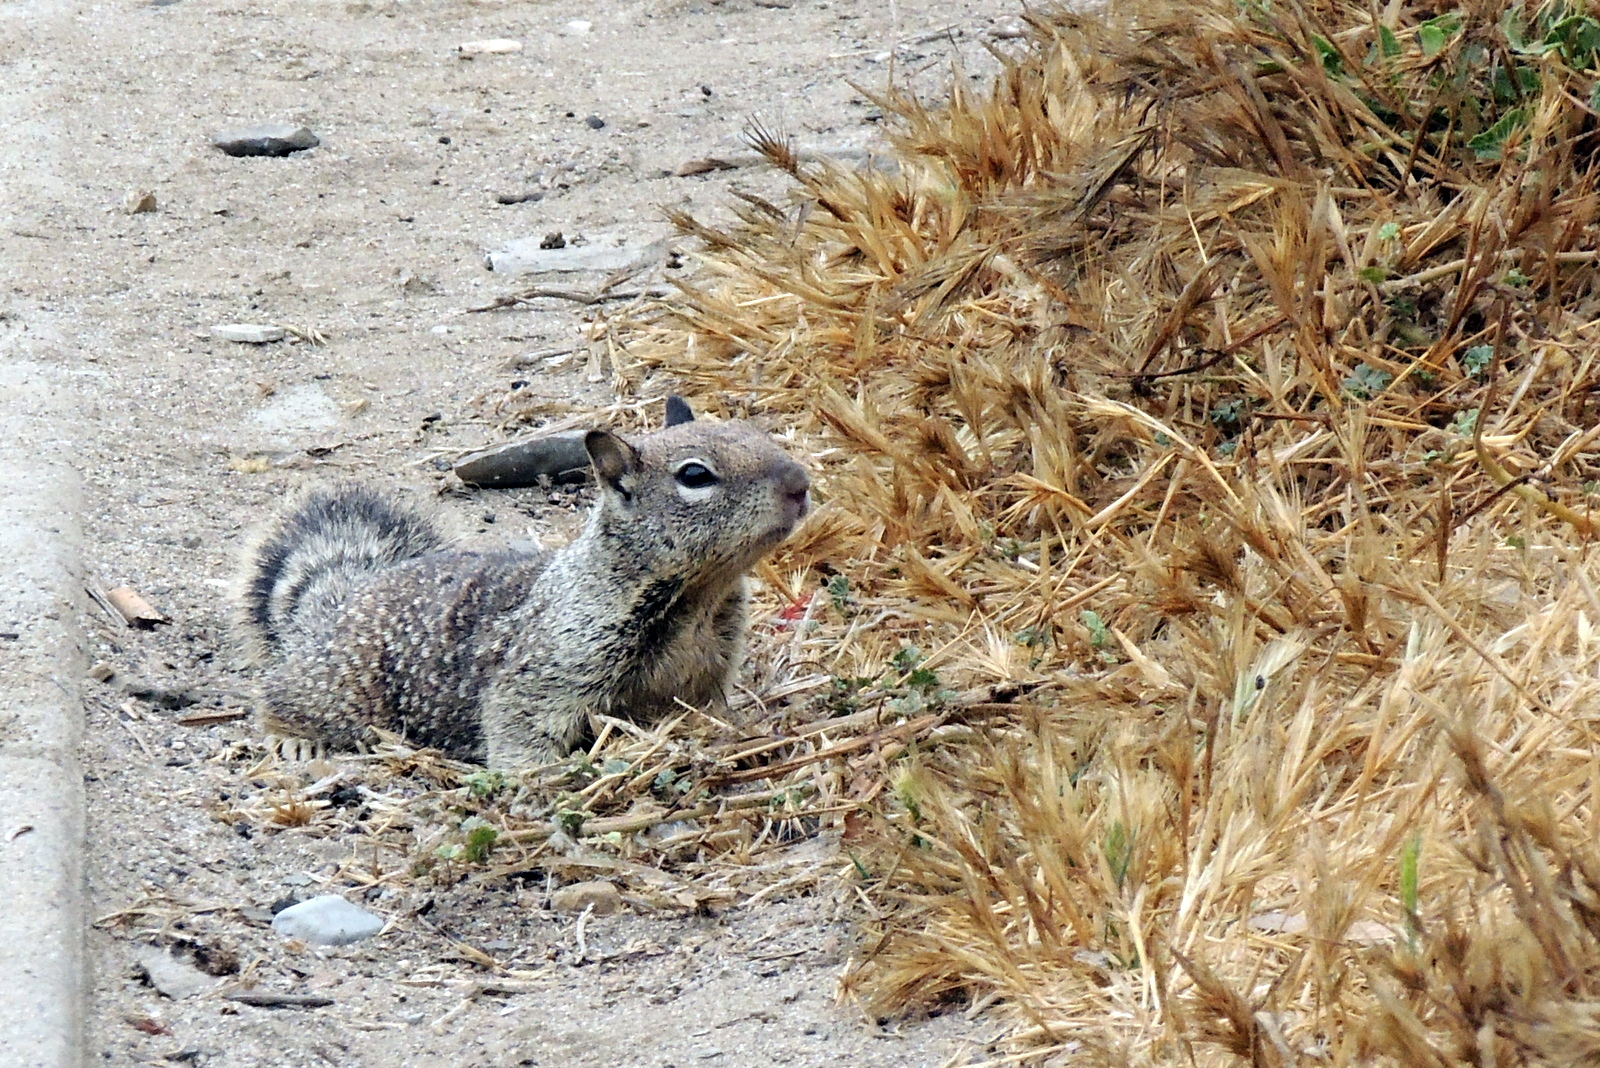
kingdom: Animalia
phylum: Chordata
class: Mammalia
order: Rodentia
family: Sciuridae
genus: Otospermophilus
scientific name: Otospermophilus beecheyi
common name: California ground squirrel
